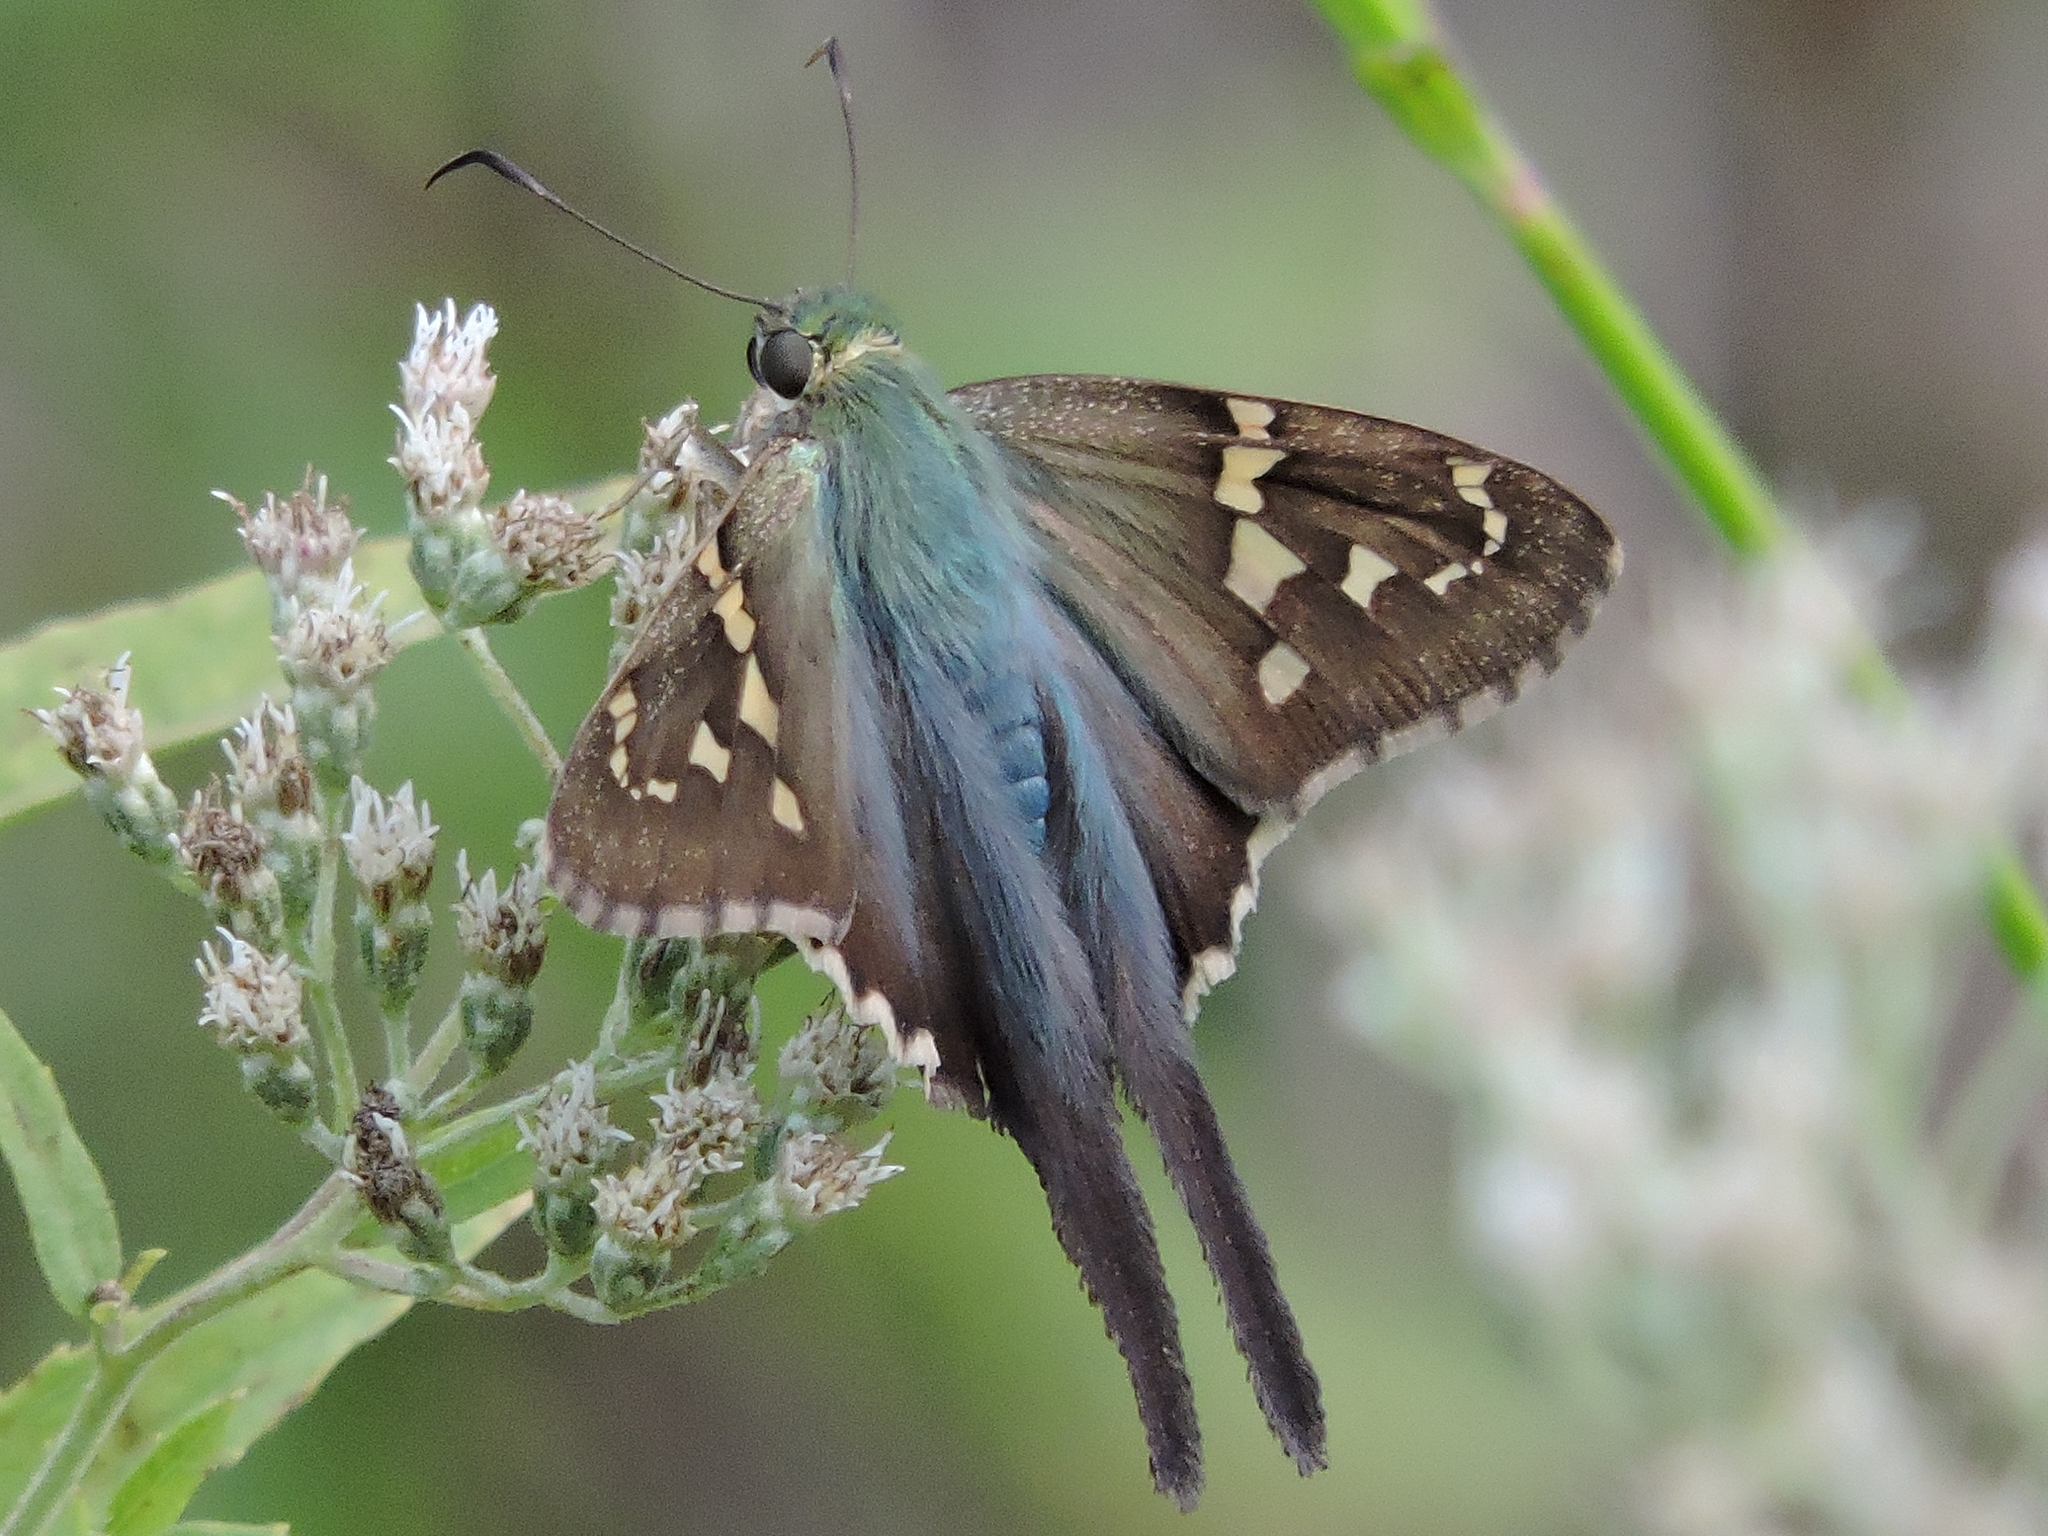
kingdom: Animalia
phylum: Arthropoda
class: Insecta
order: Lepidoptera
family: Hesperiidae
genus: Urbanus
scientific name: Urbanus proteus
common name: Long-tailed skipper
